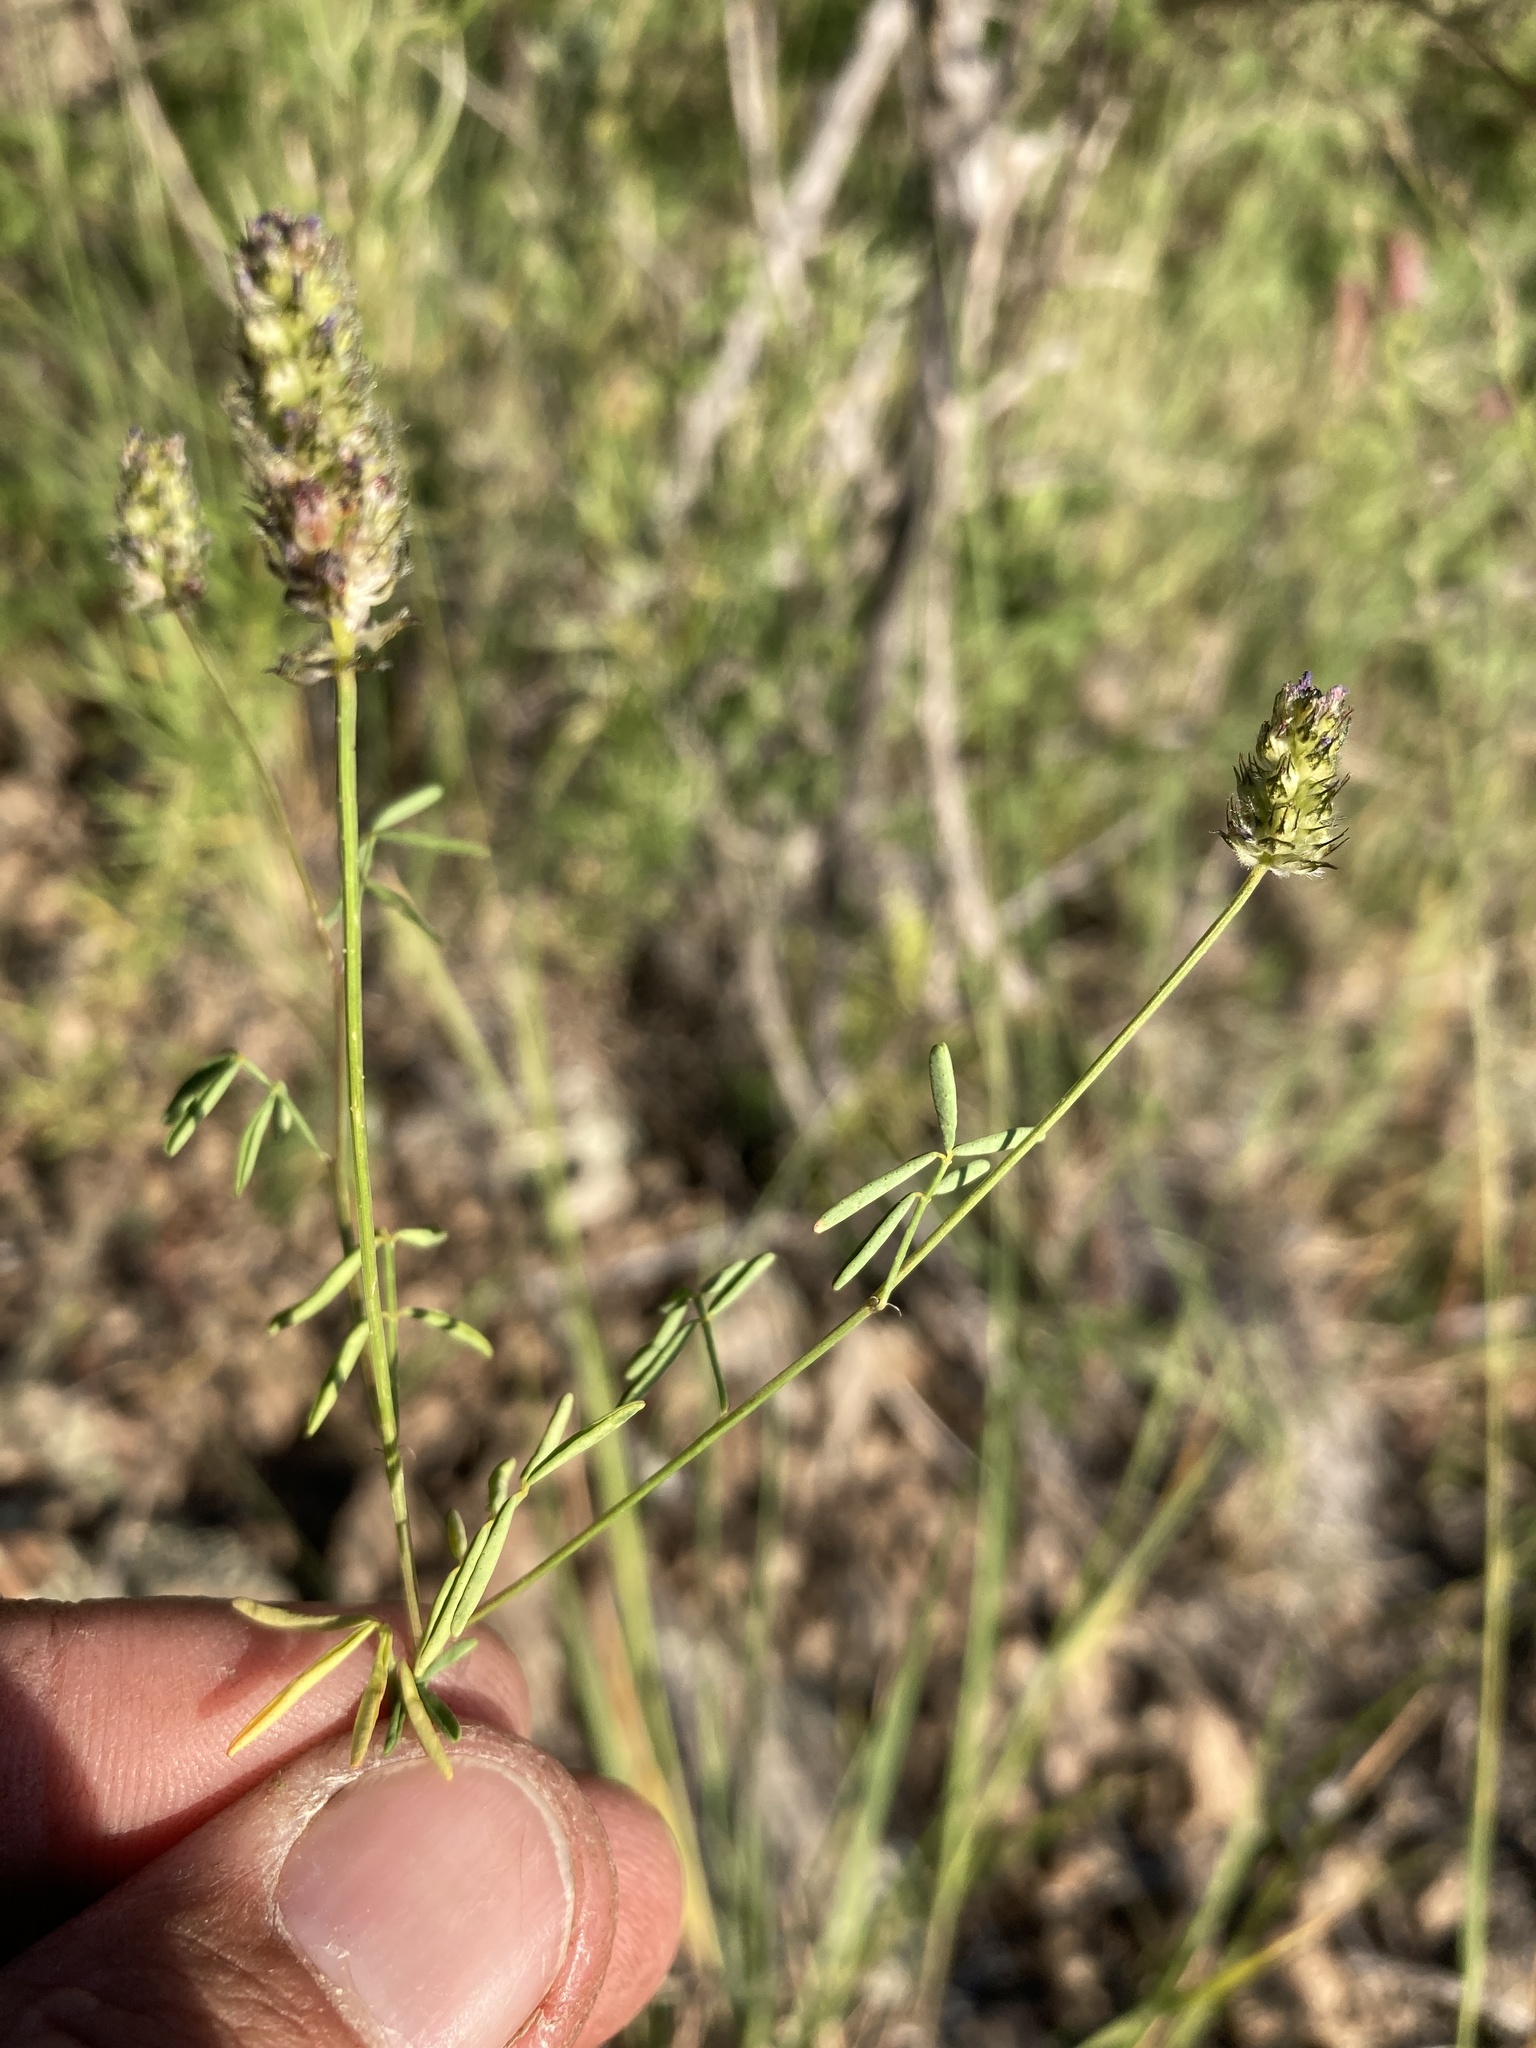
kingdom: Plantae
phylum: Tracheophyta
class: Magnoliopsida
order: Fabales
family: Fabaceae
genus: Dalea
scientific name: Dalea polygonoides
